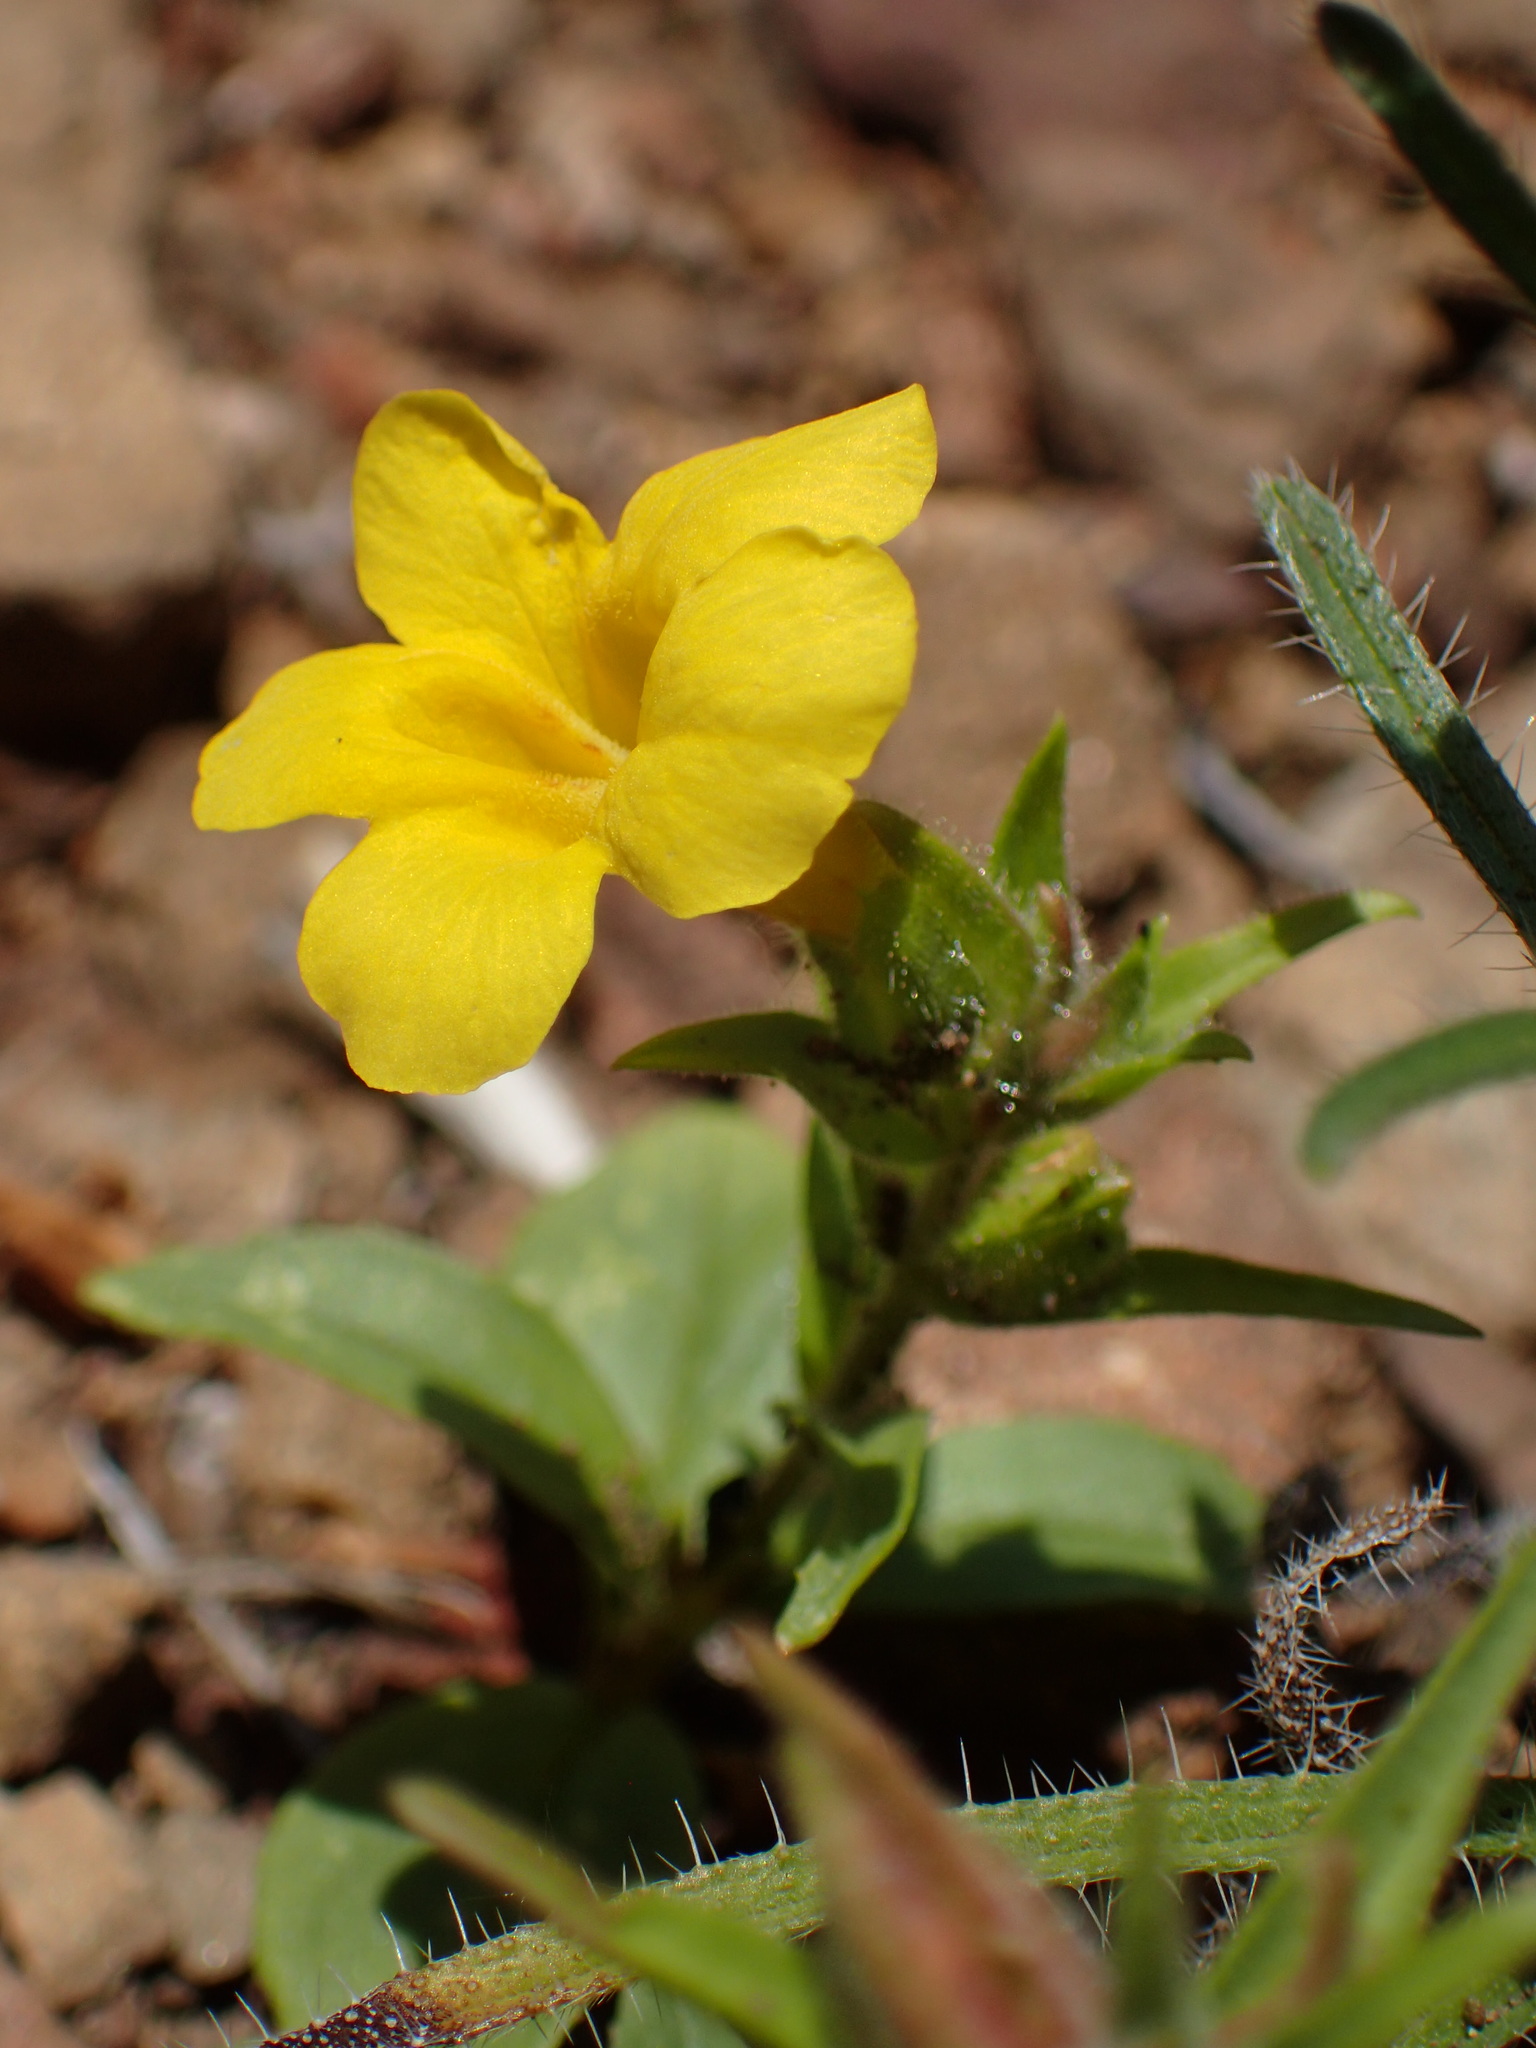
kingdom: Plantae
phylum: Tracheophyta
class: Magnoliopsida
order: Lamiales
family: Phrymaceae
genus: Diplacus
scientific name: Diplacus brevipes
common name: Wide-throat yellow monkey-flower
